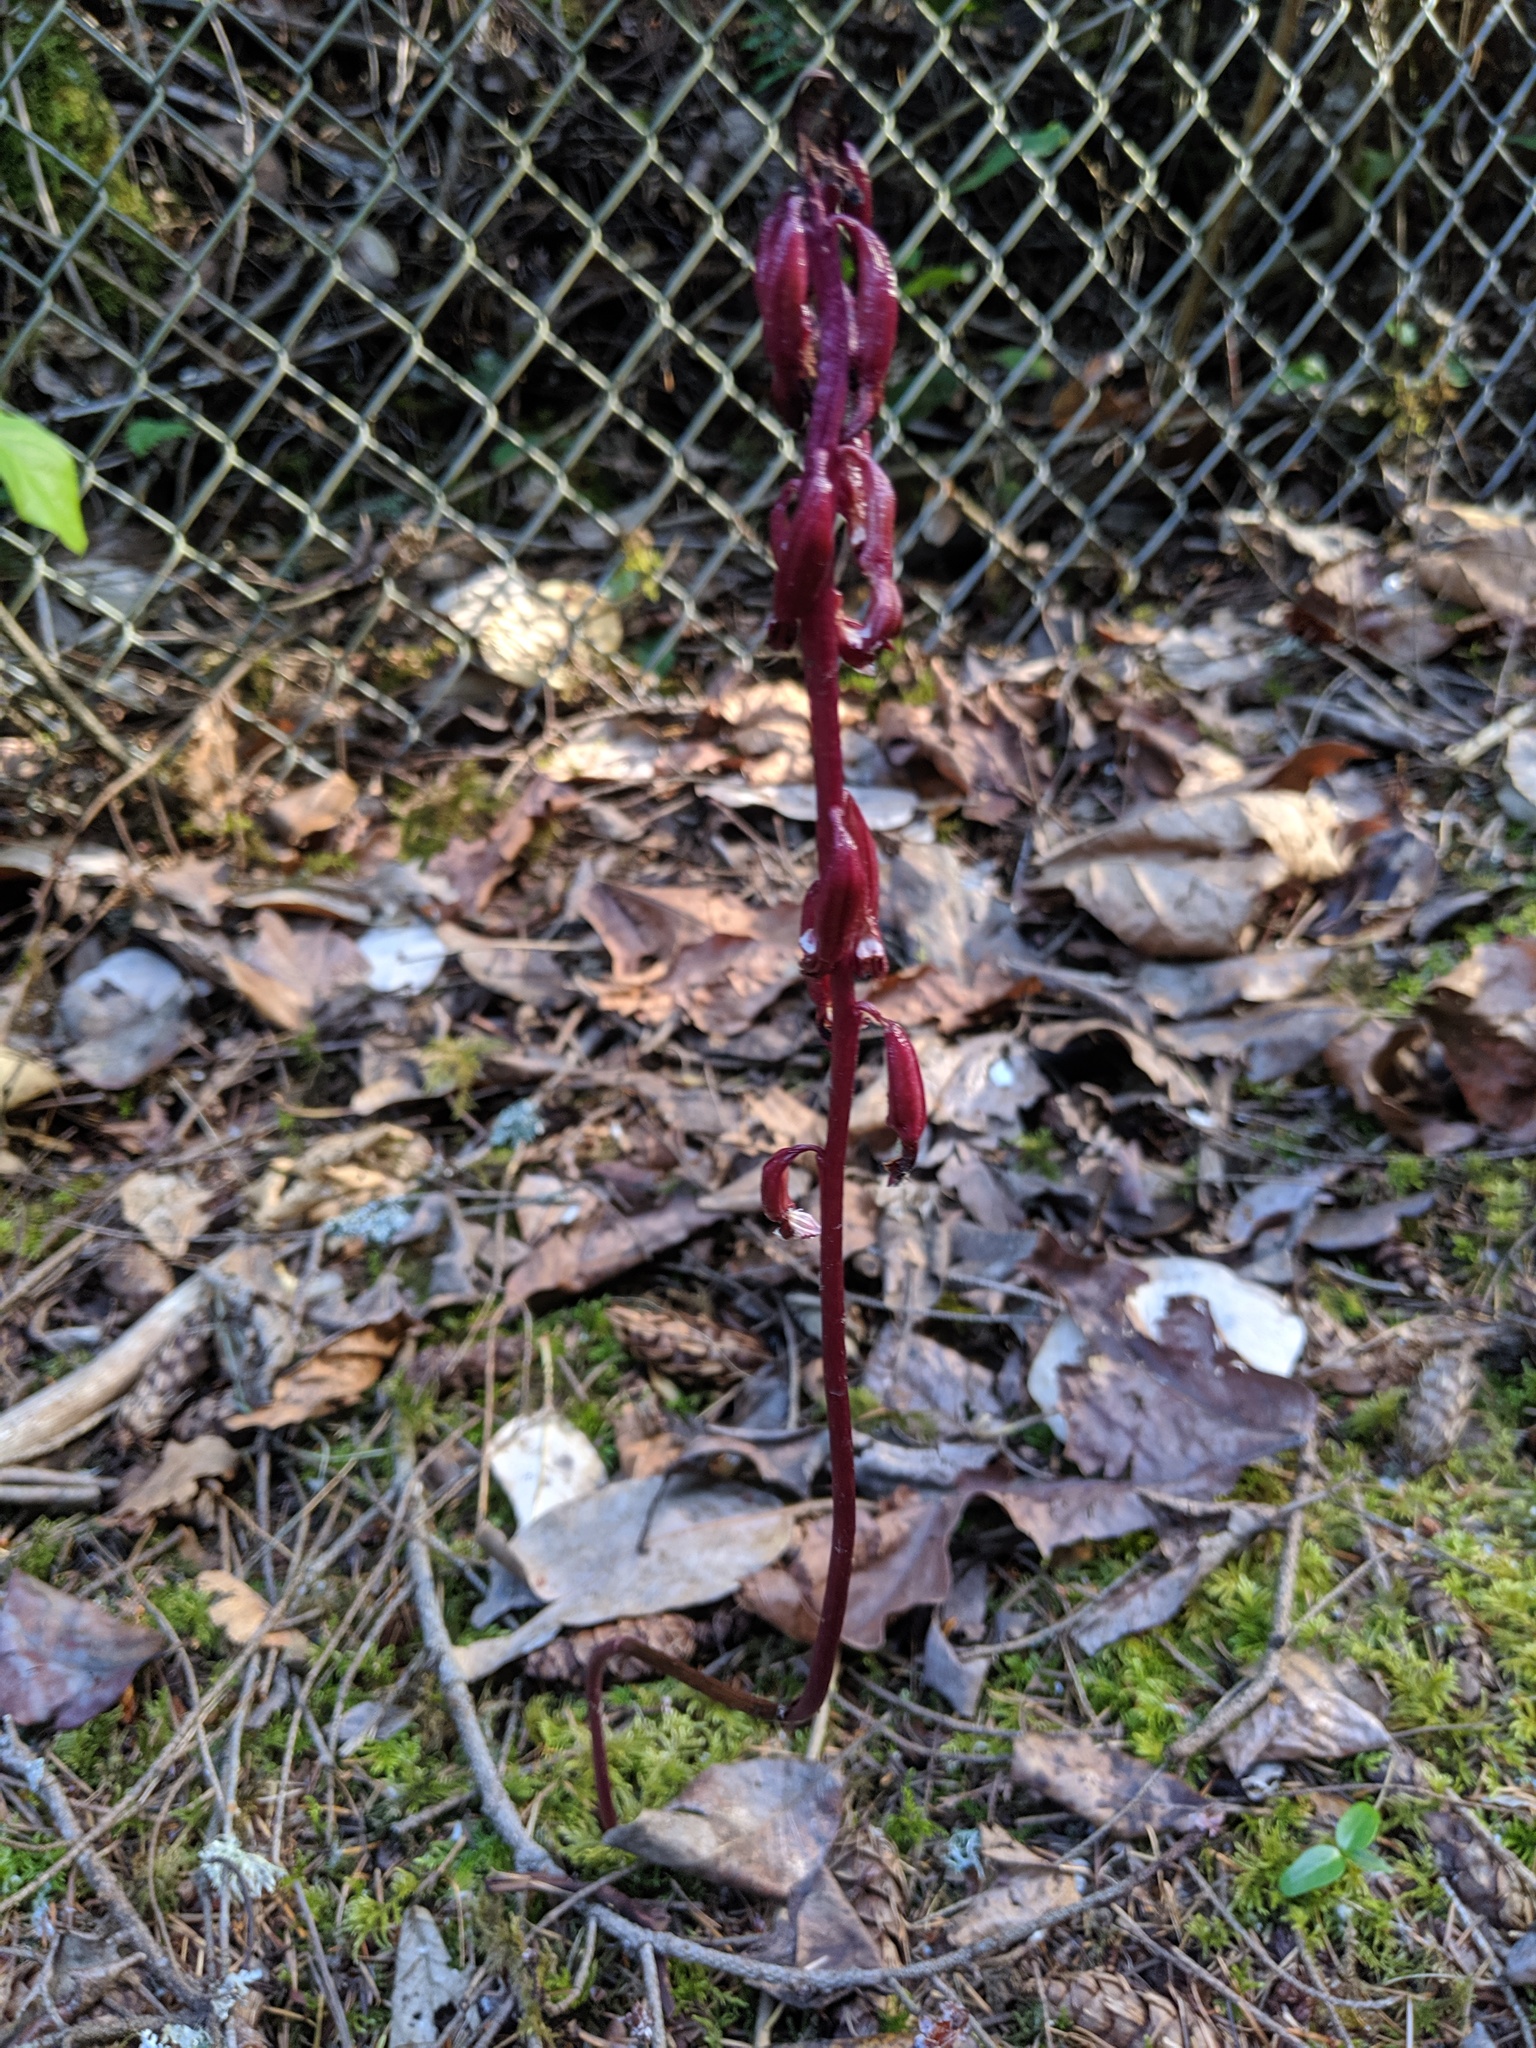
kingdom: Plantae
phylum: Tracheophyta
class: Liliopsida
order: Asparagales
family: Orchidaceae
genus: Corallorhiza
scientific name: Corallorhiza maculata
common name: Spotted coralroot
